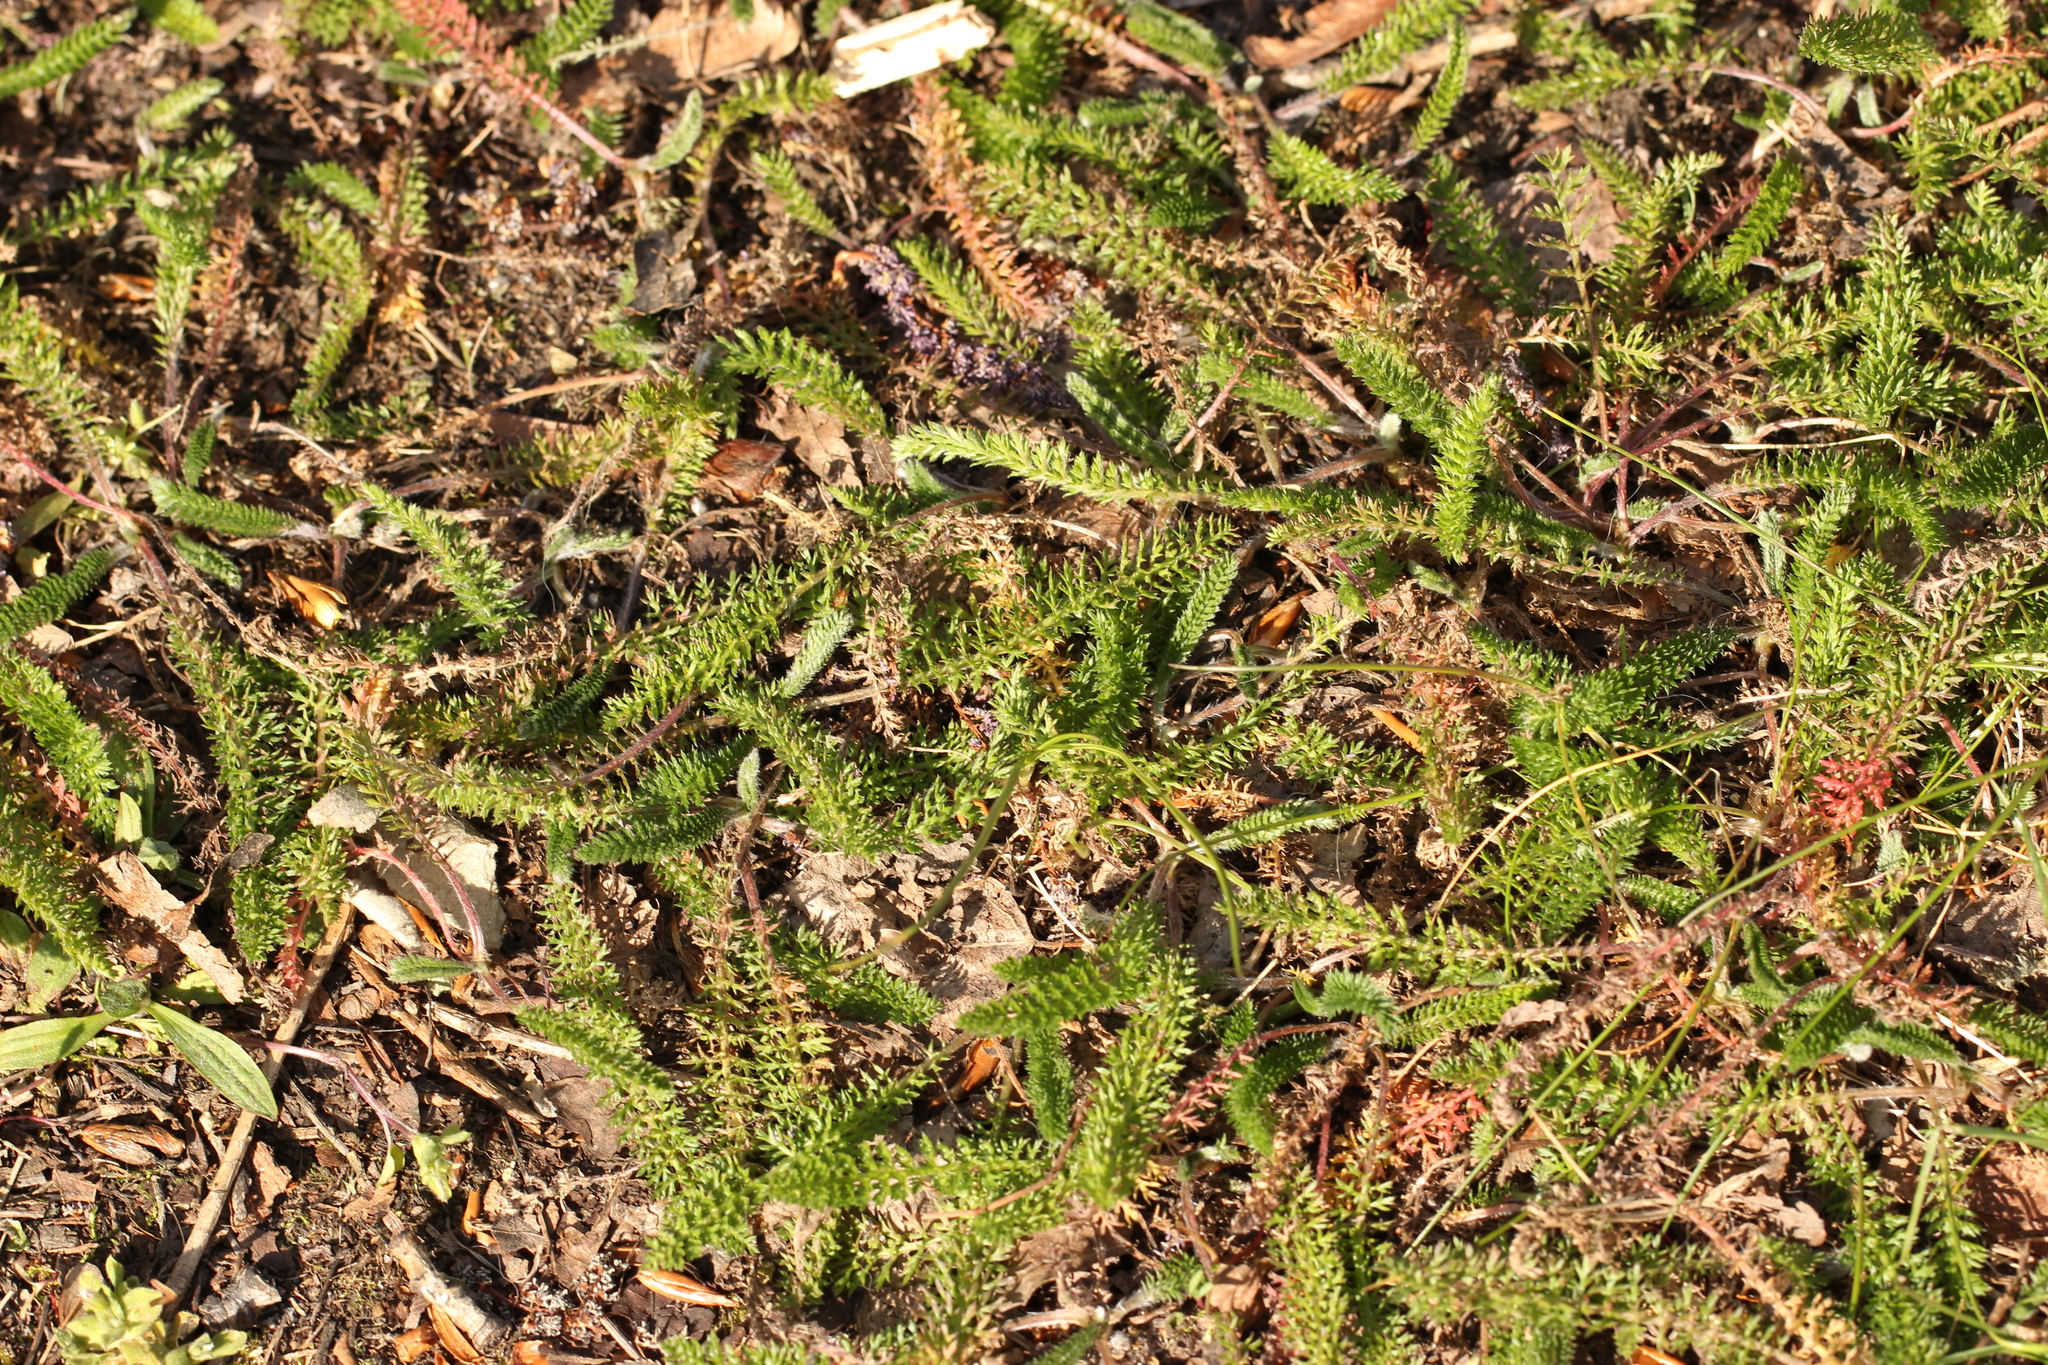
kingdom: Plantae
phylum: Tracheophyta
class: Magnoliopsida
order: Asterales
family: Asteraceae
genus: Achillea
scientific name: Achillea millefolium
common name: Yarrow
